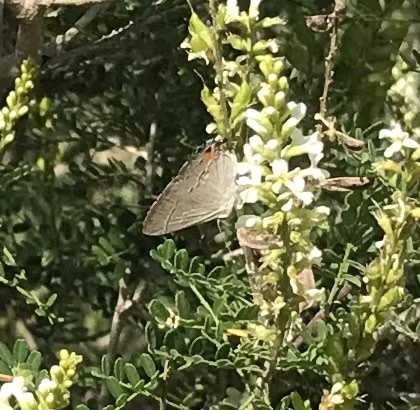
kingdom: Animalia
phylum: Arthropoda
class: Insecta
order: Lepidoptera
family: Lycaenidae
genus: Strymon
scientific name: Strymon melinus
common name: Gray hairstreak
